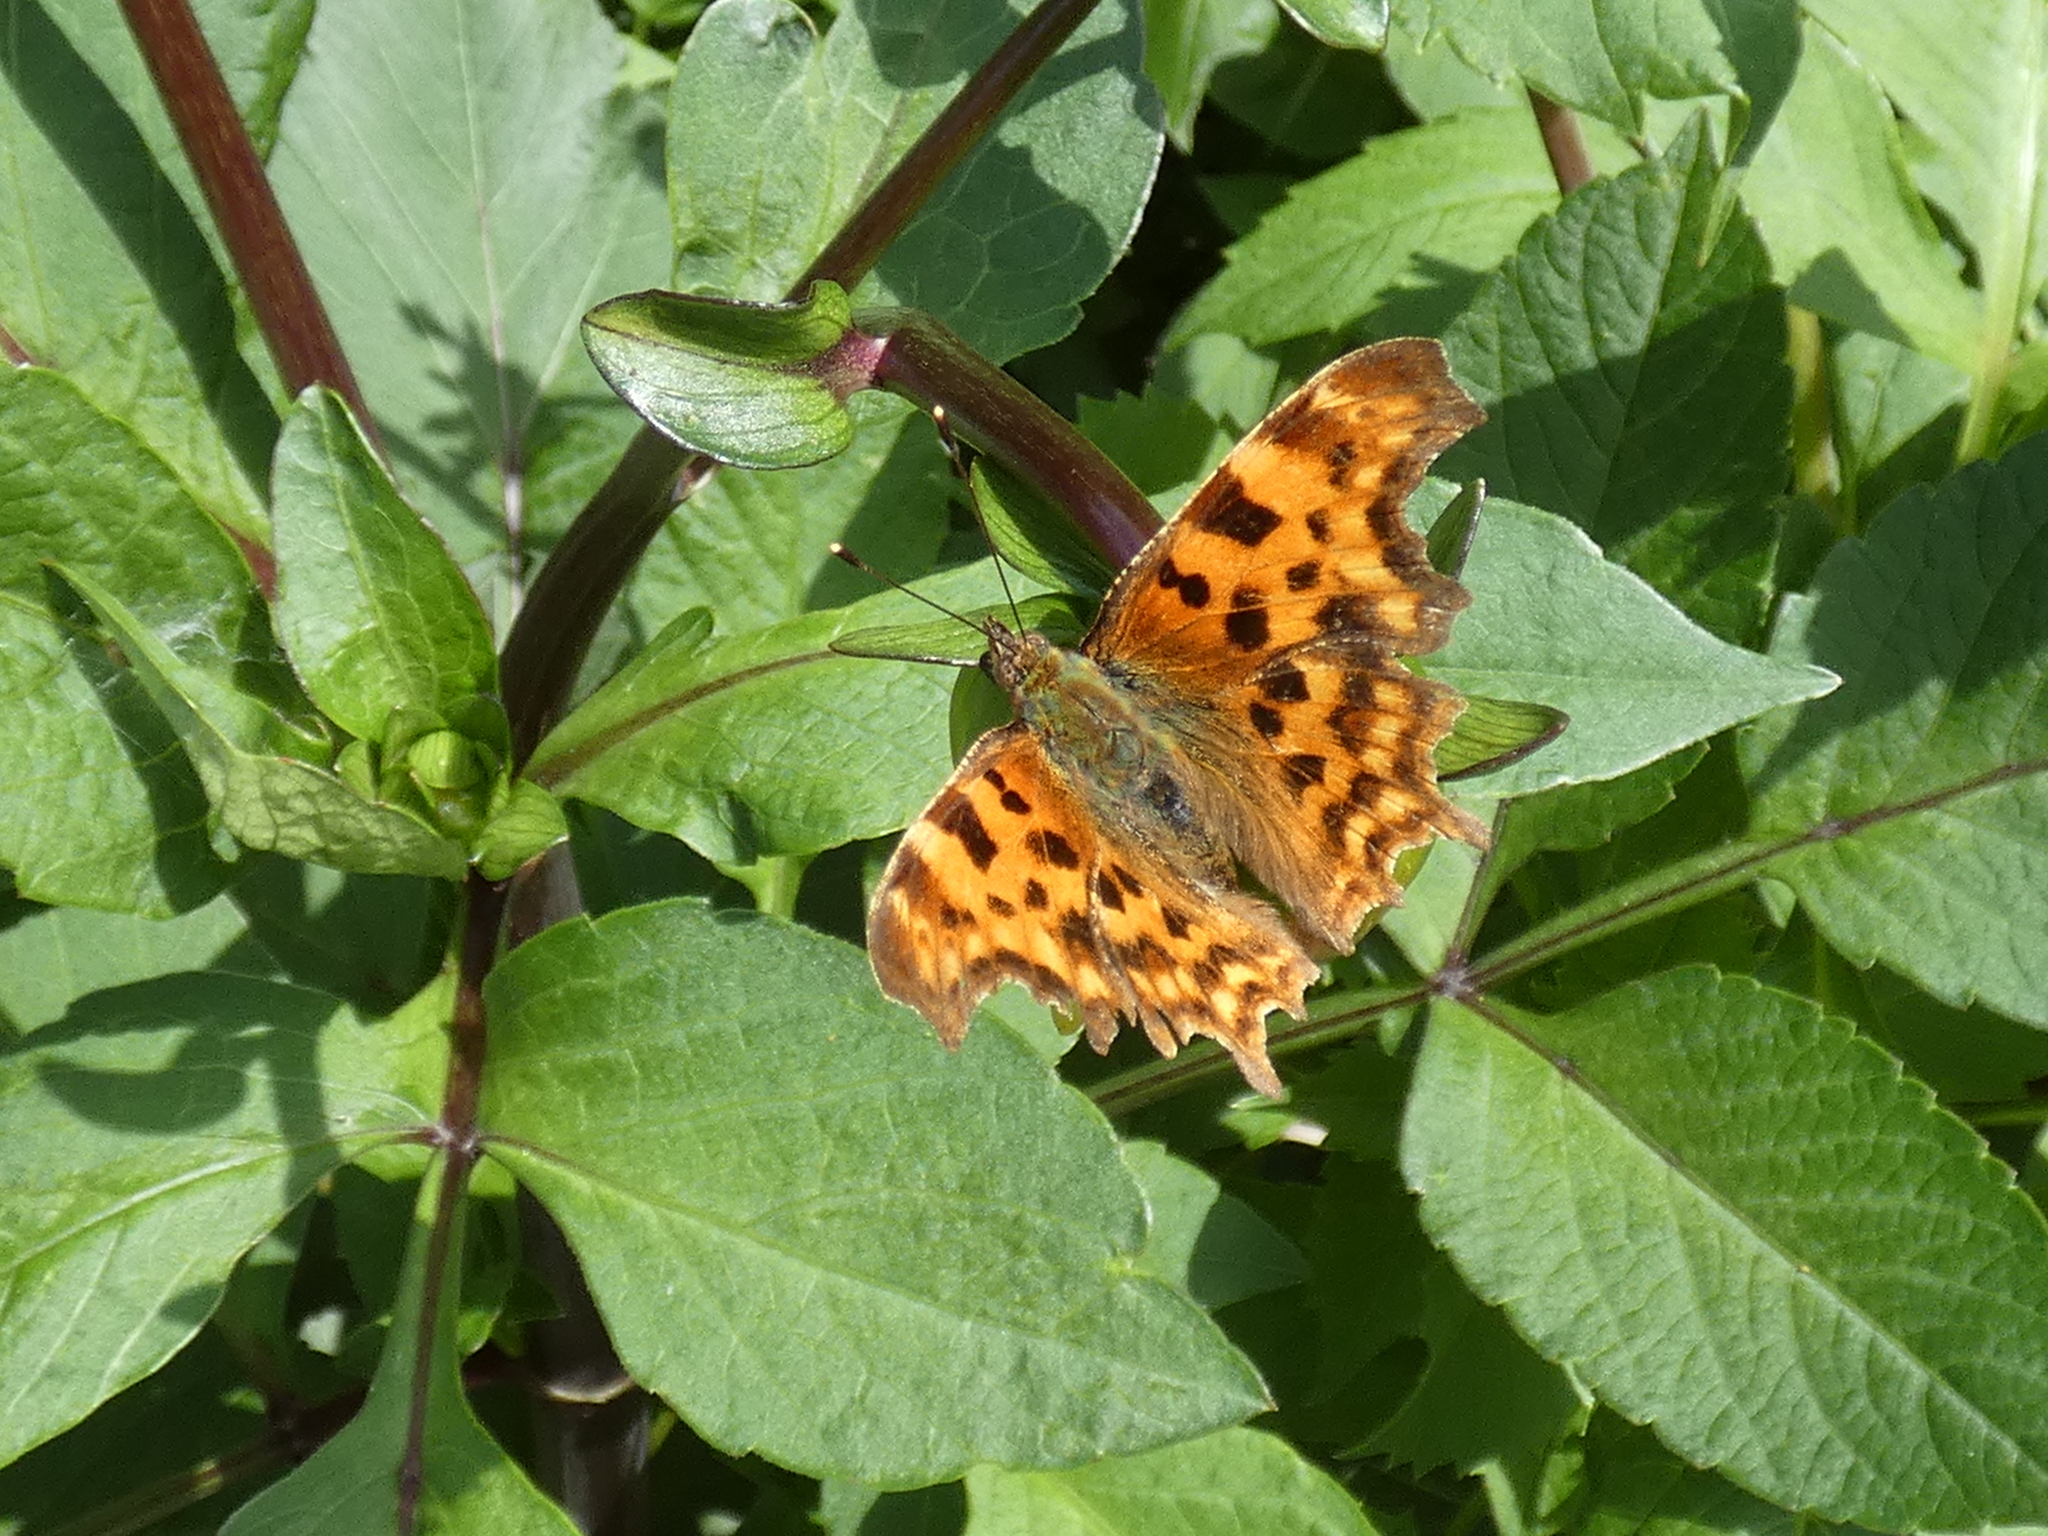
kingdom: Animalia
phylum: Arthropoda
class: Insecta
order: Lepidoptera
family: Nymphalidae
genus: Polygonia
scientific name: Polygonia c-album
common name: Comma
